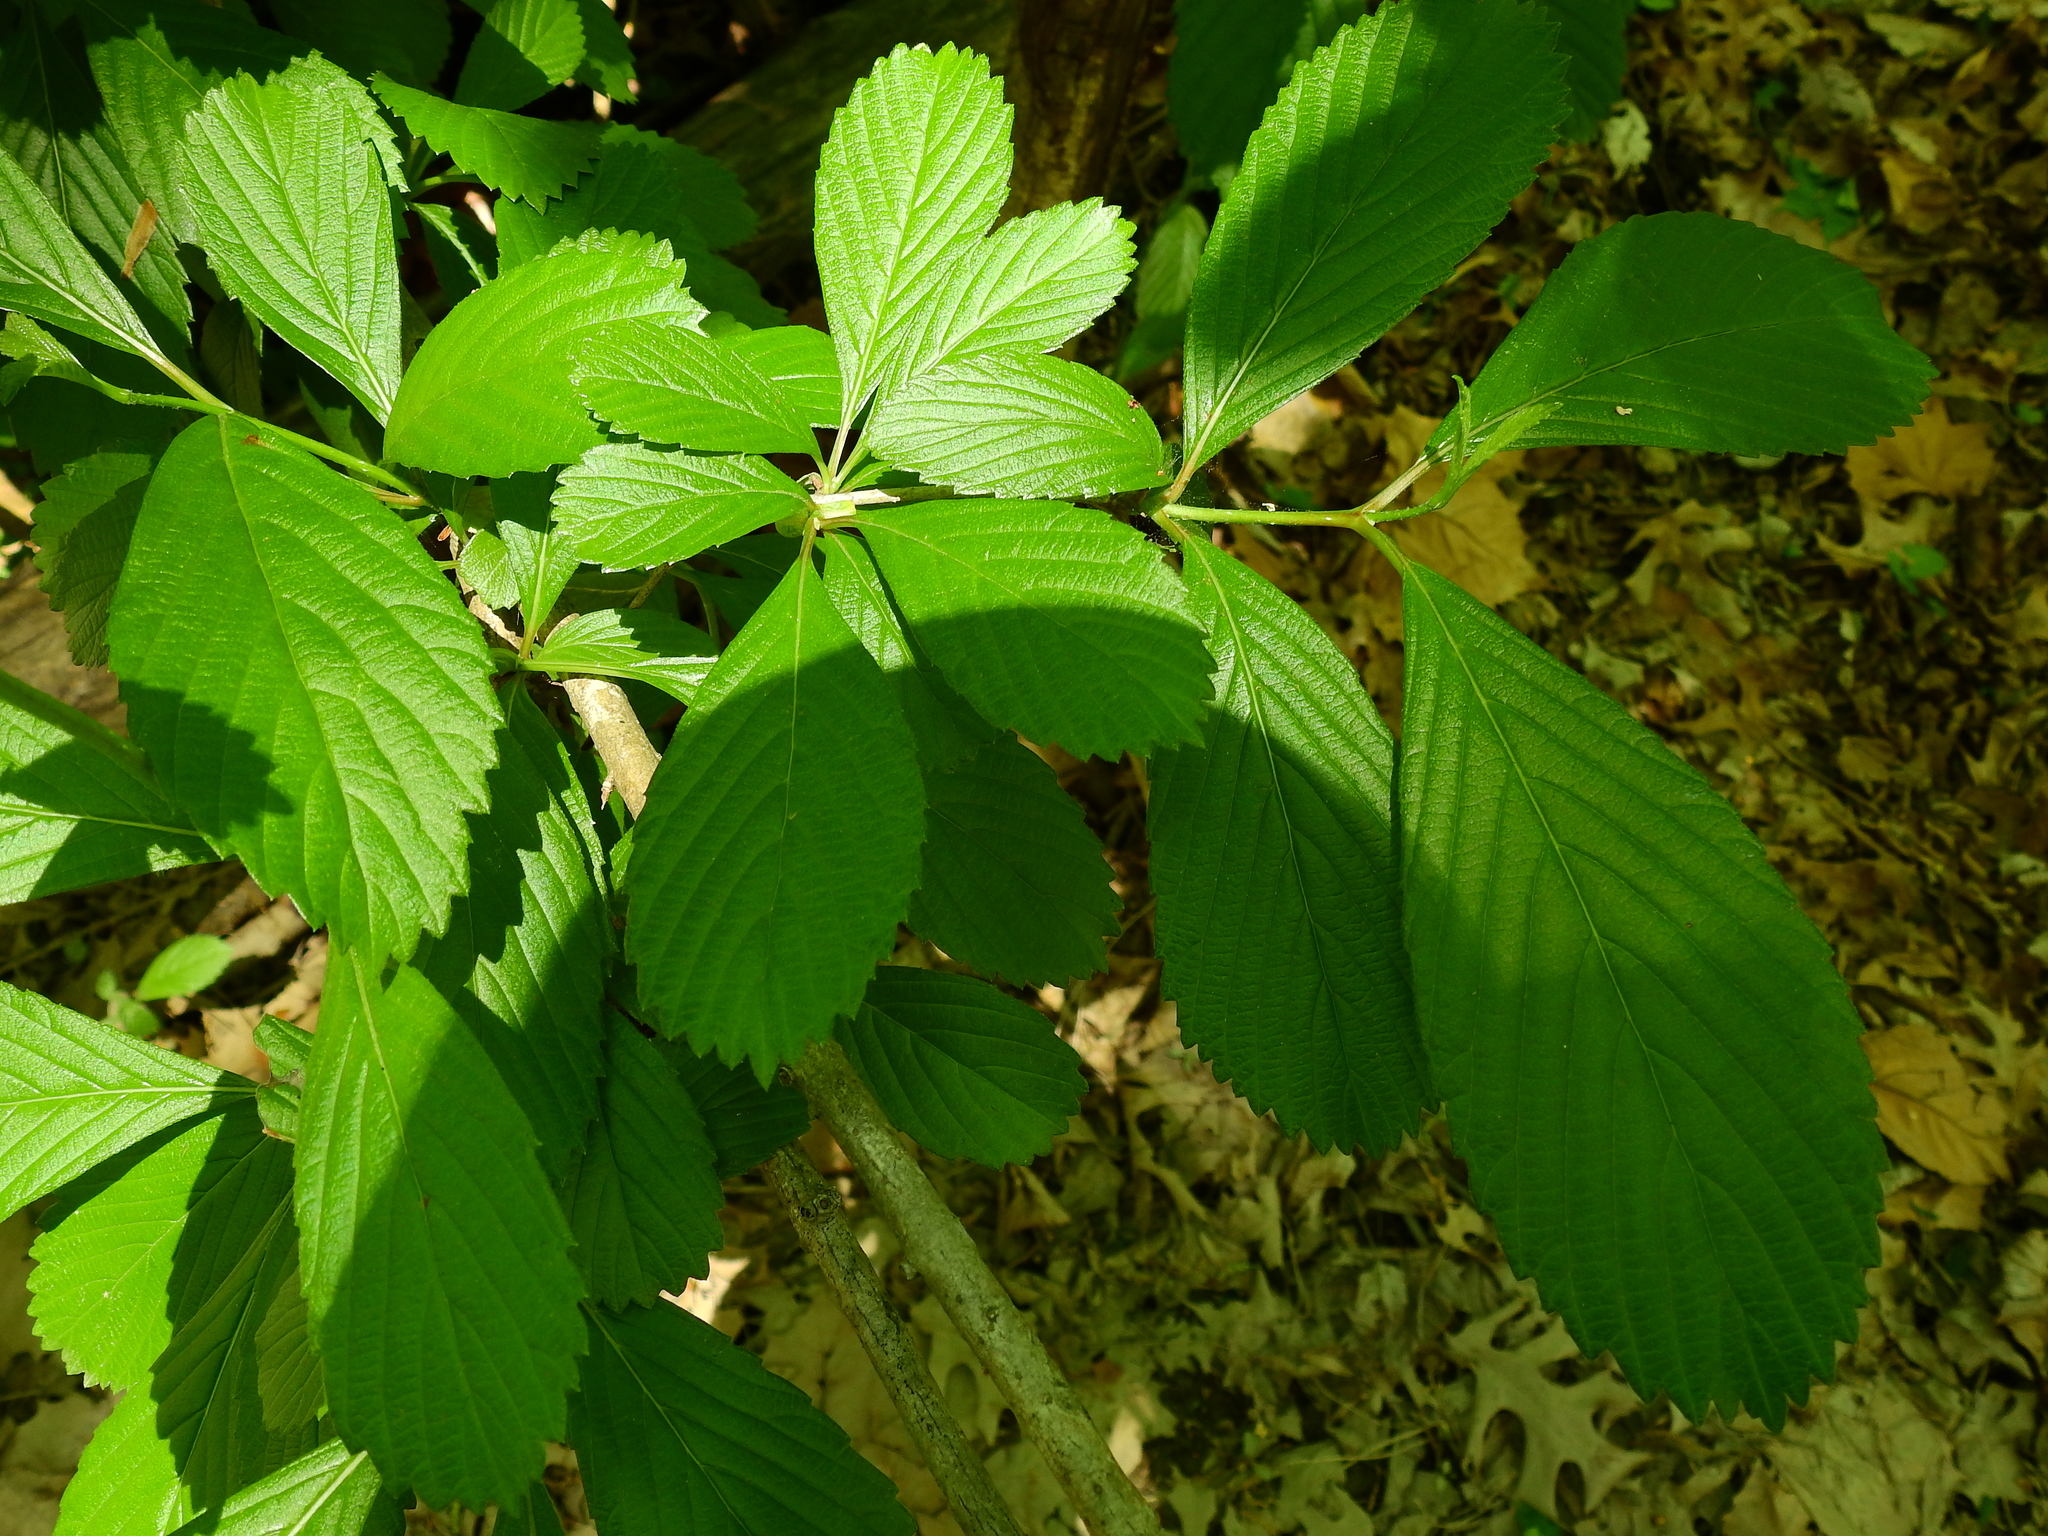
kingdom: Plantae
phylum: Tracheophyta
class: Magnoliopsida
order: Dipsacales
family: Viburnaceae
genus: Viburnum
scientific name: Viburnum sieboldii
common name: Siebold's arrowwood
